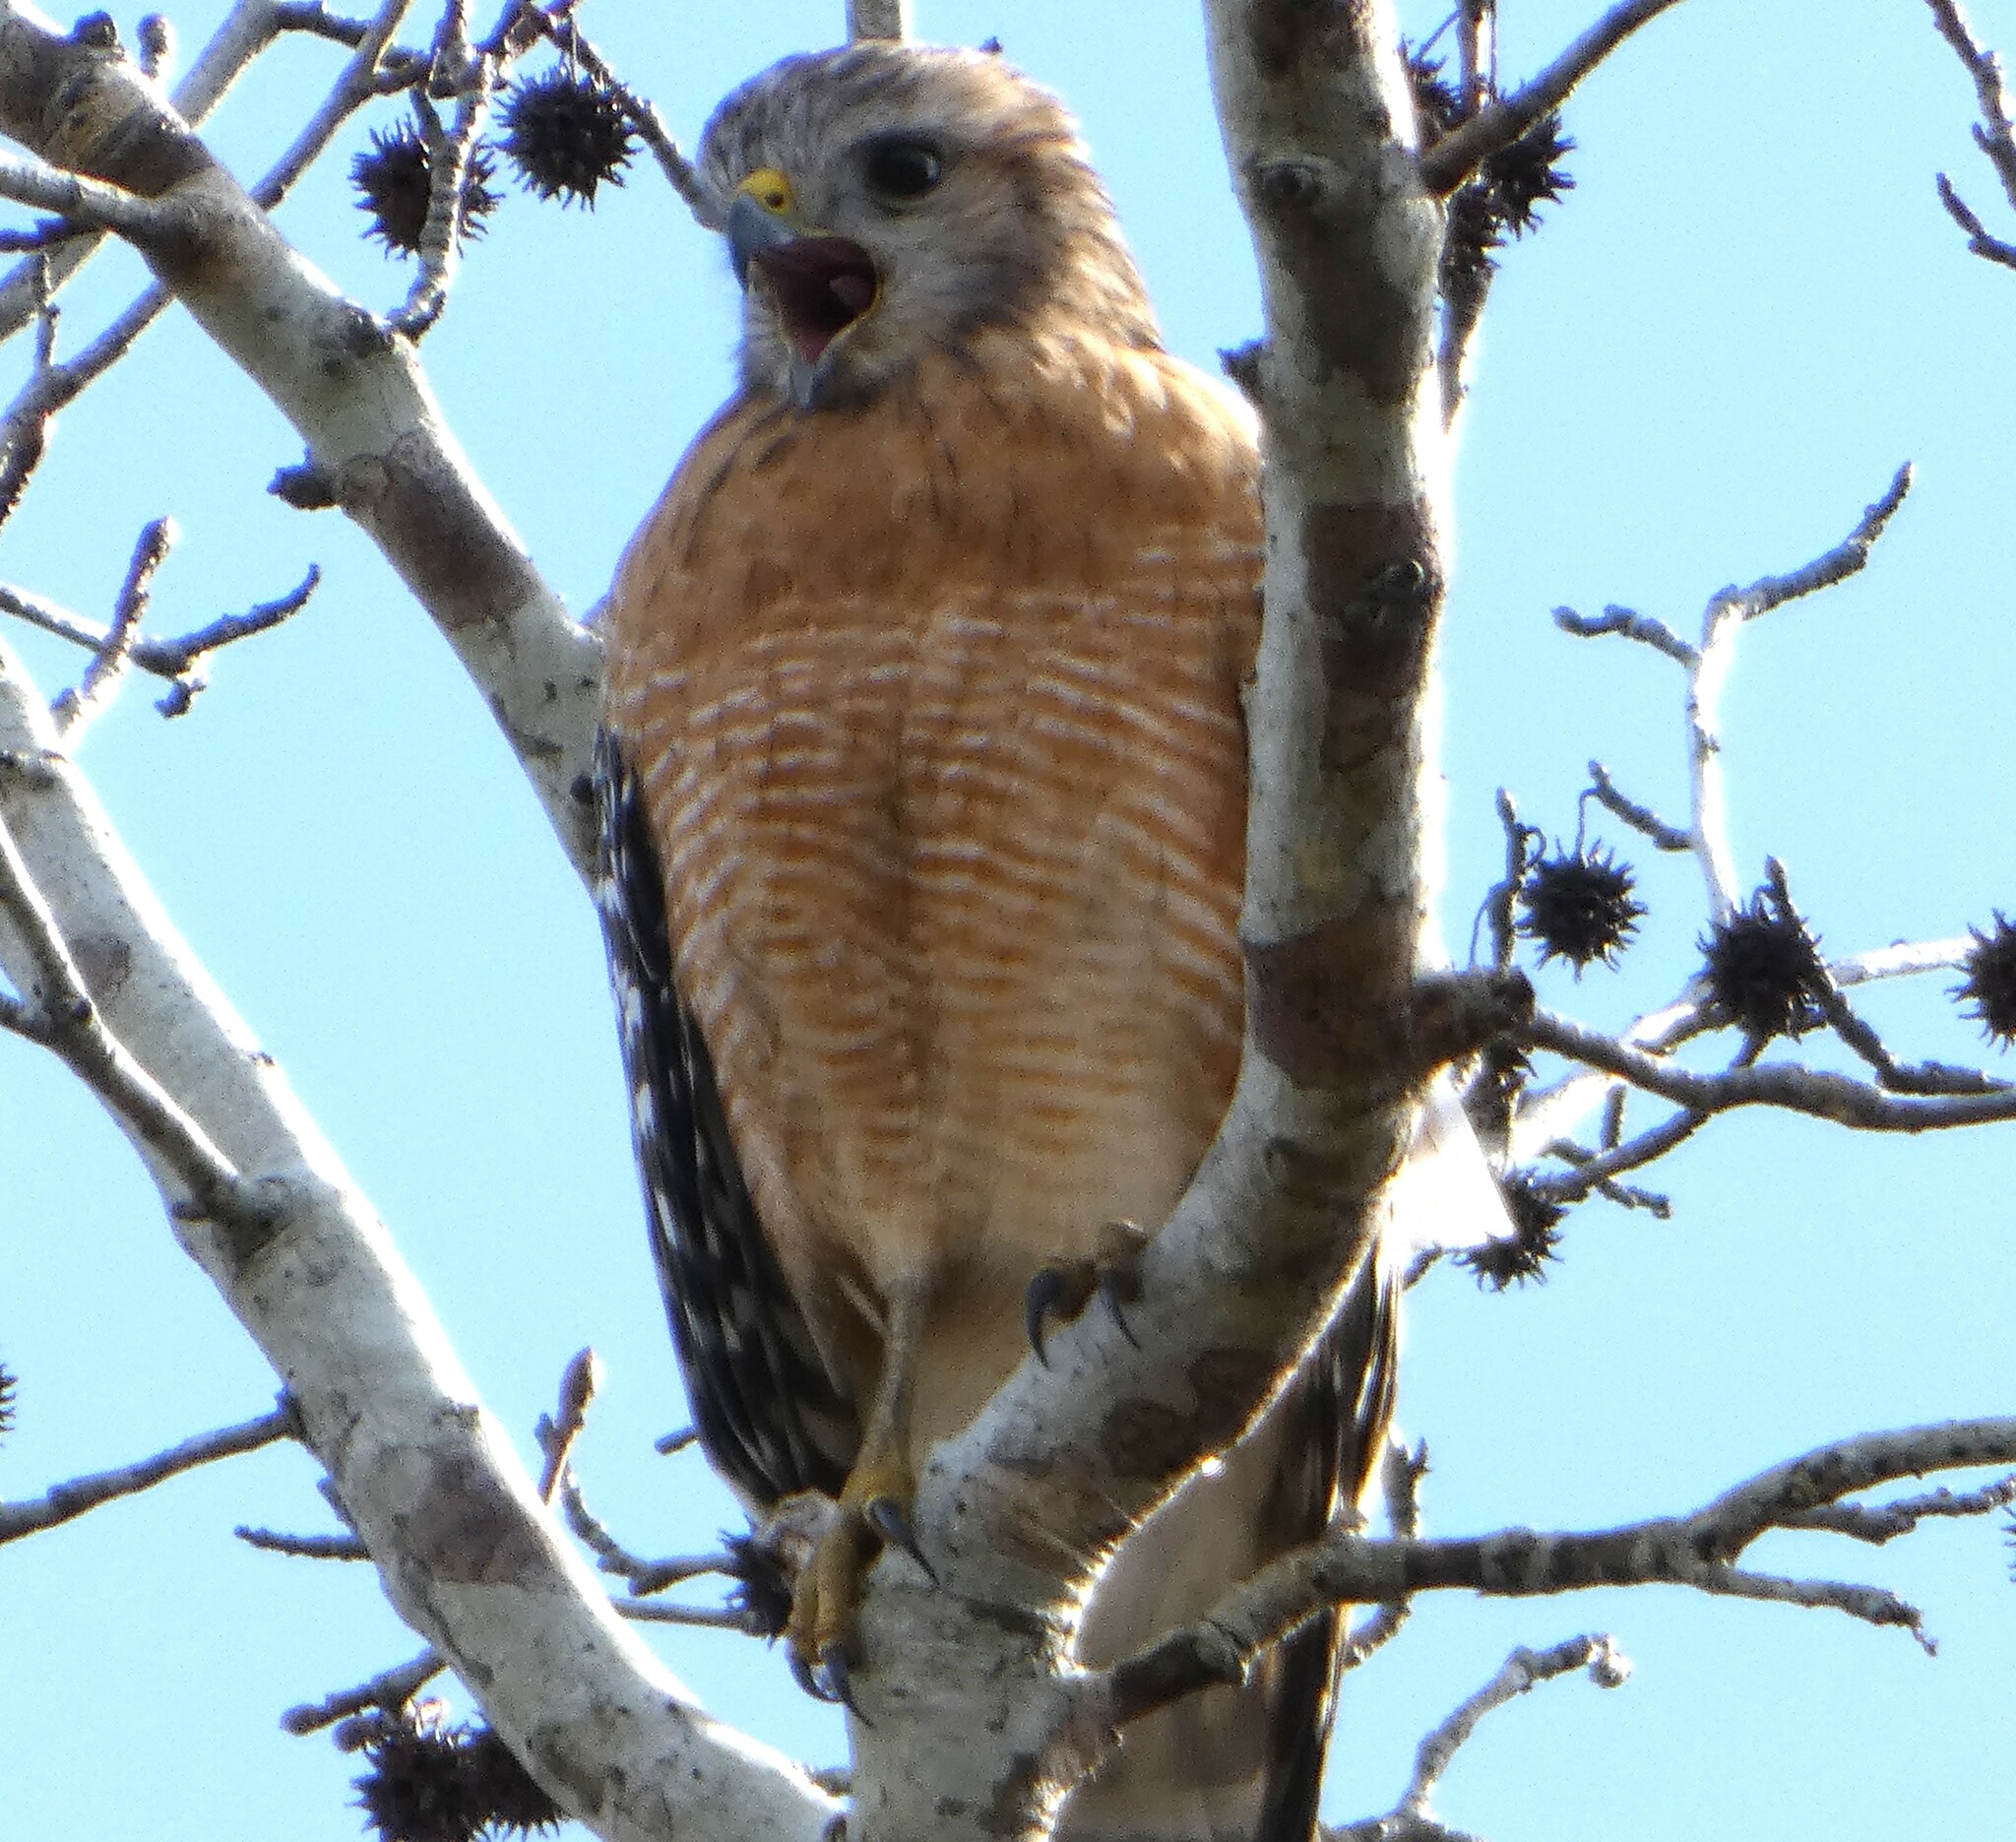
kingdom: Animalia
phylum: Chordata
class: Aves
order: Accipitriformes
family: Accipitridae
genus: Buteo
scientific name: Buteo lineatus
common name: Red-shouldered hawk
